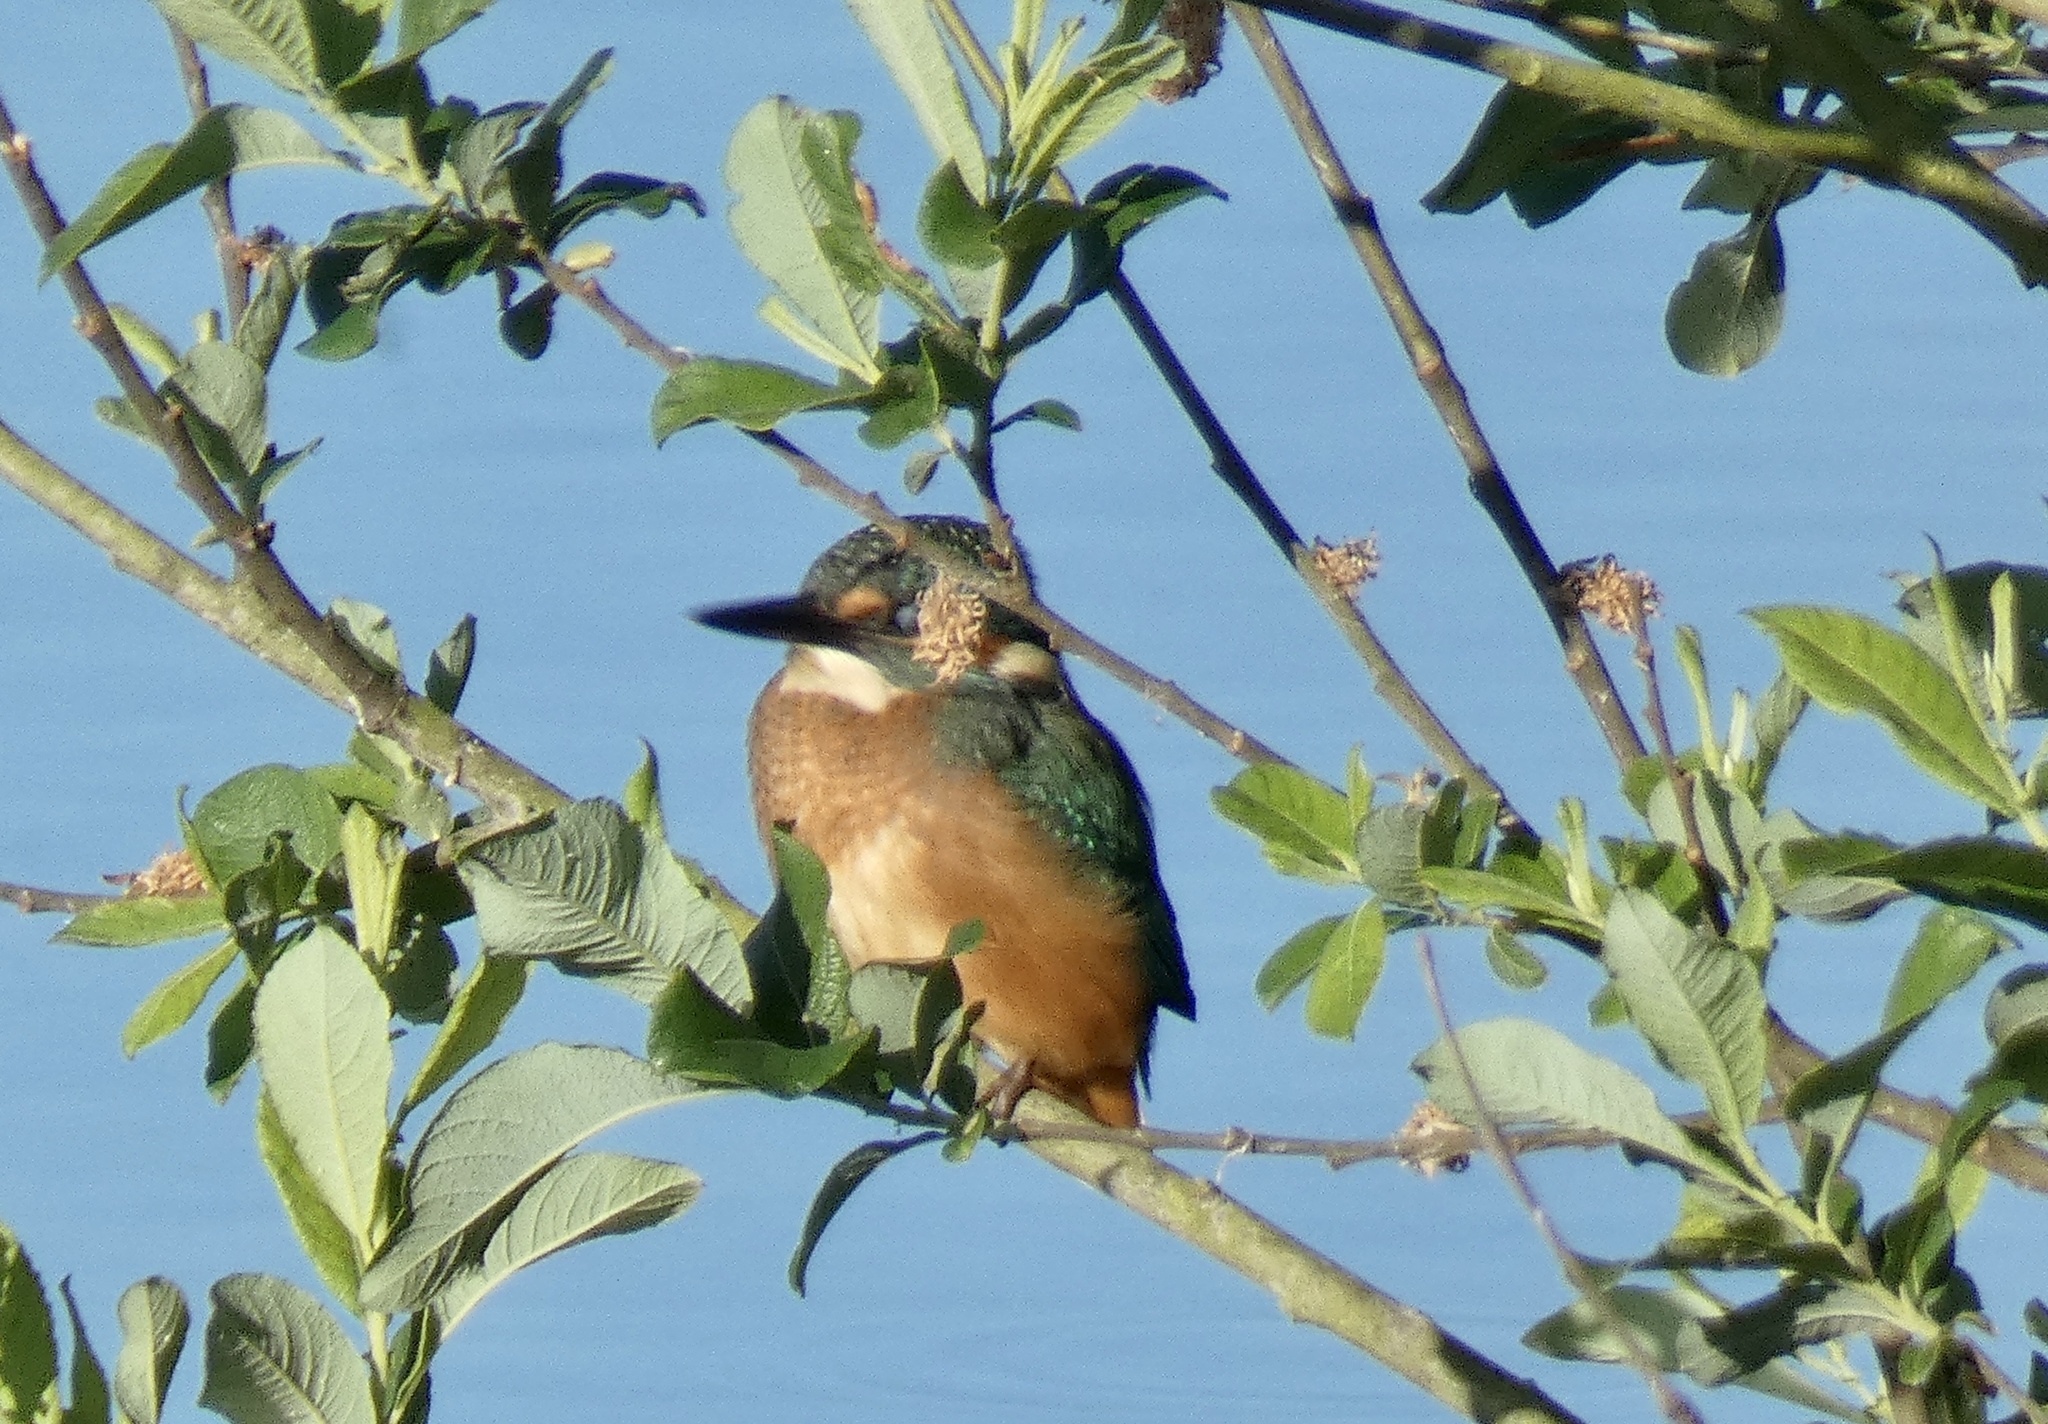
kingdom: Animalia
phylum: Chordata
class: Aves
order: Coraciiformes
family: Alcedinidae
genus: Alcedo
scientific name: Alcedo atthis
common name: Common kingfisher
